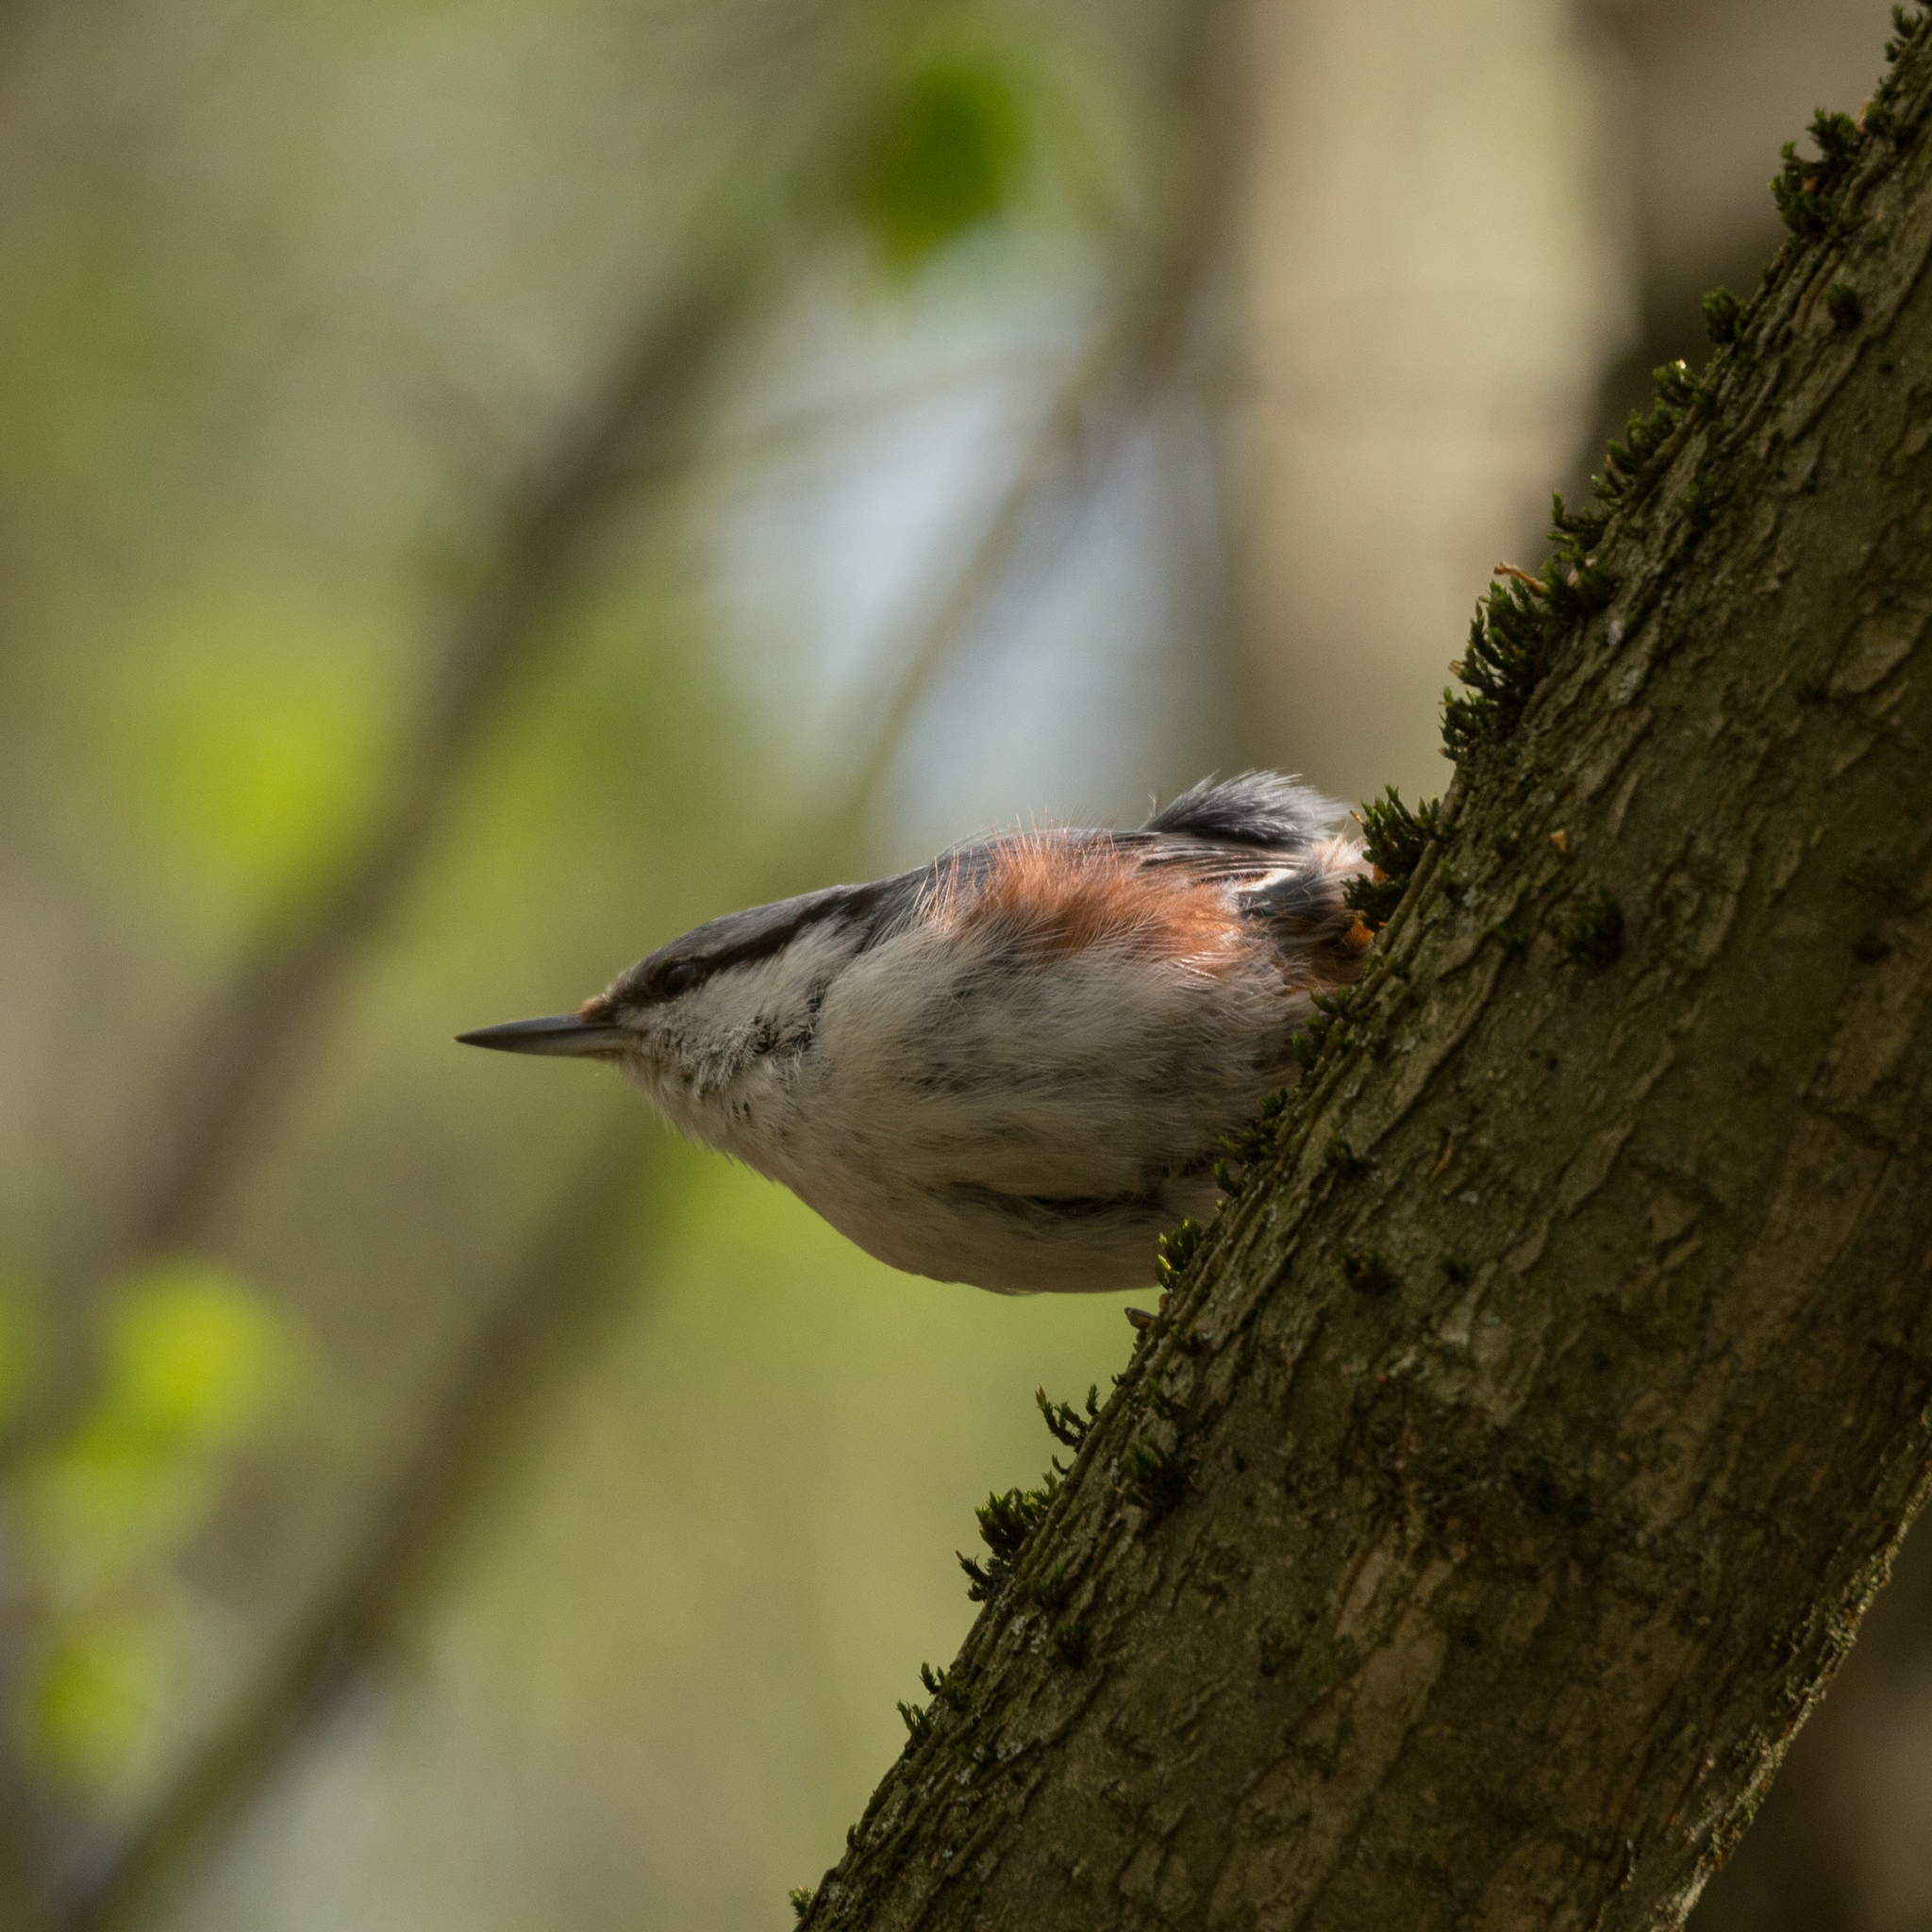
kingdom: Animalia
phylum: Chordata
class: Aves
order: Passeriformes
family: Sittidae
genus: Sitta
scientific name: Sitta europaea
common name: Eurasian nuthatch
